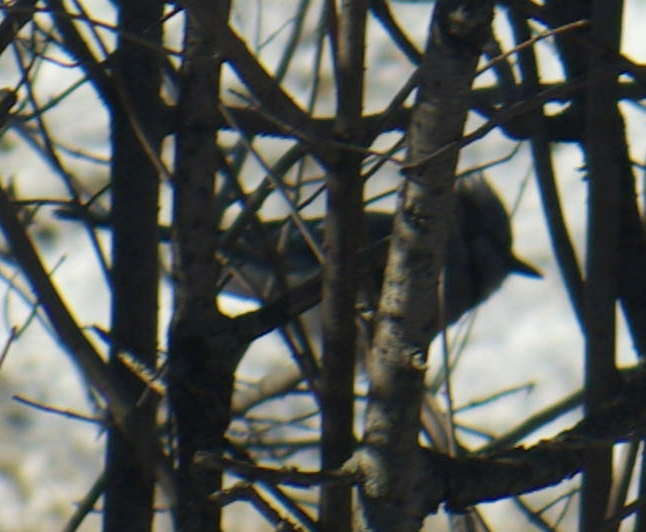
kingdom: Animalia
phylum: Chordata
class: Aves
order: Passeriformes
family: Corvidae
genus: Cyanocitta
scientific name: Cyanocitta cristata
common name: Blue jay
